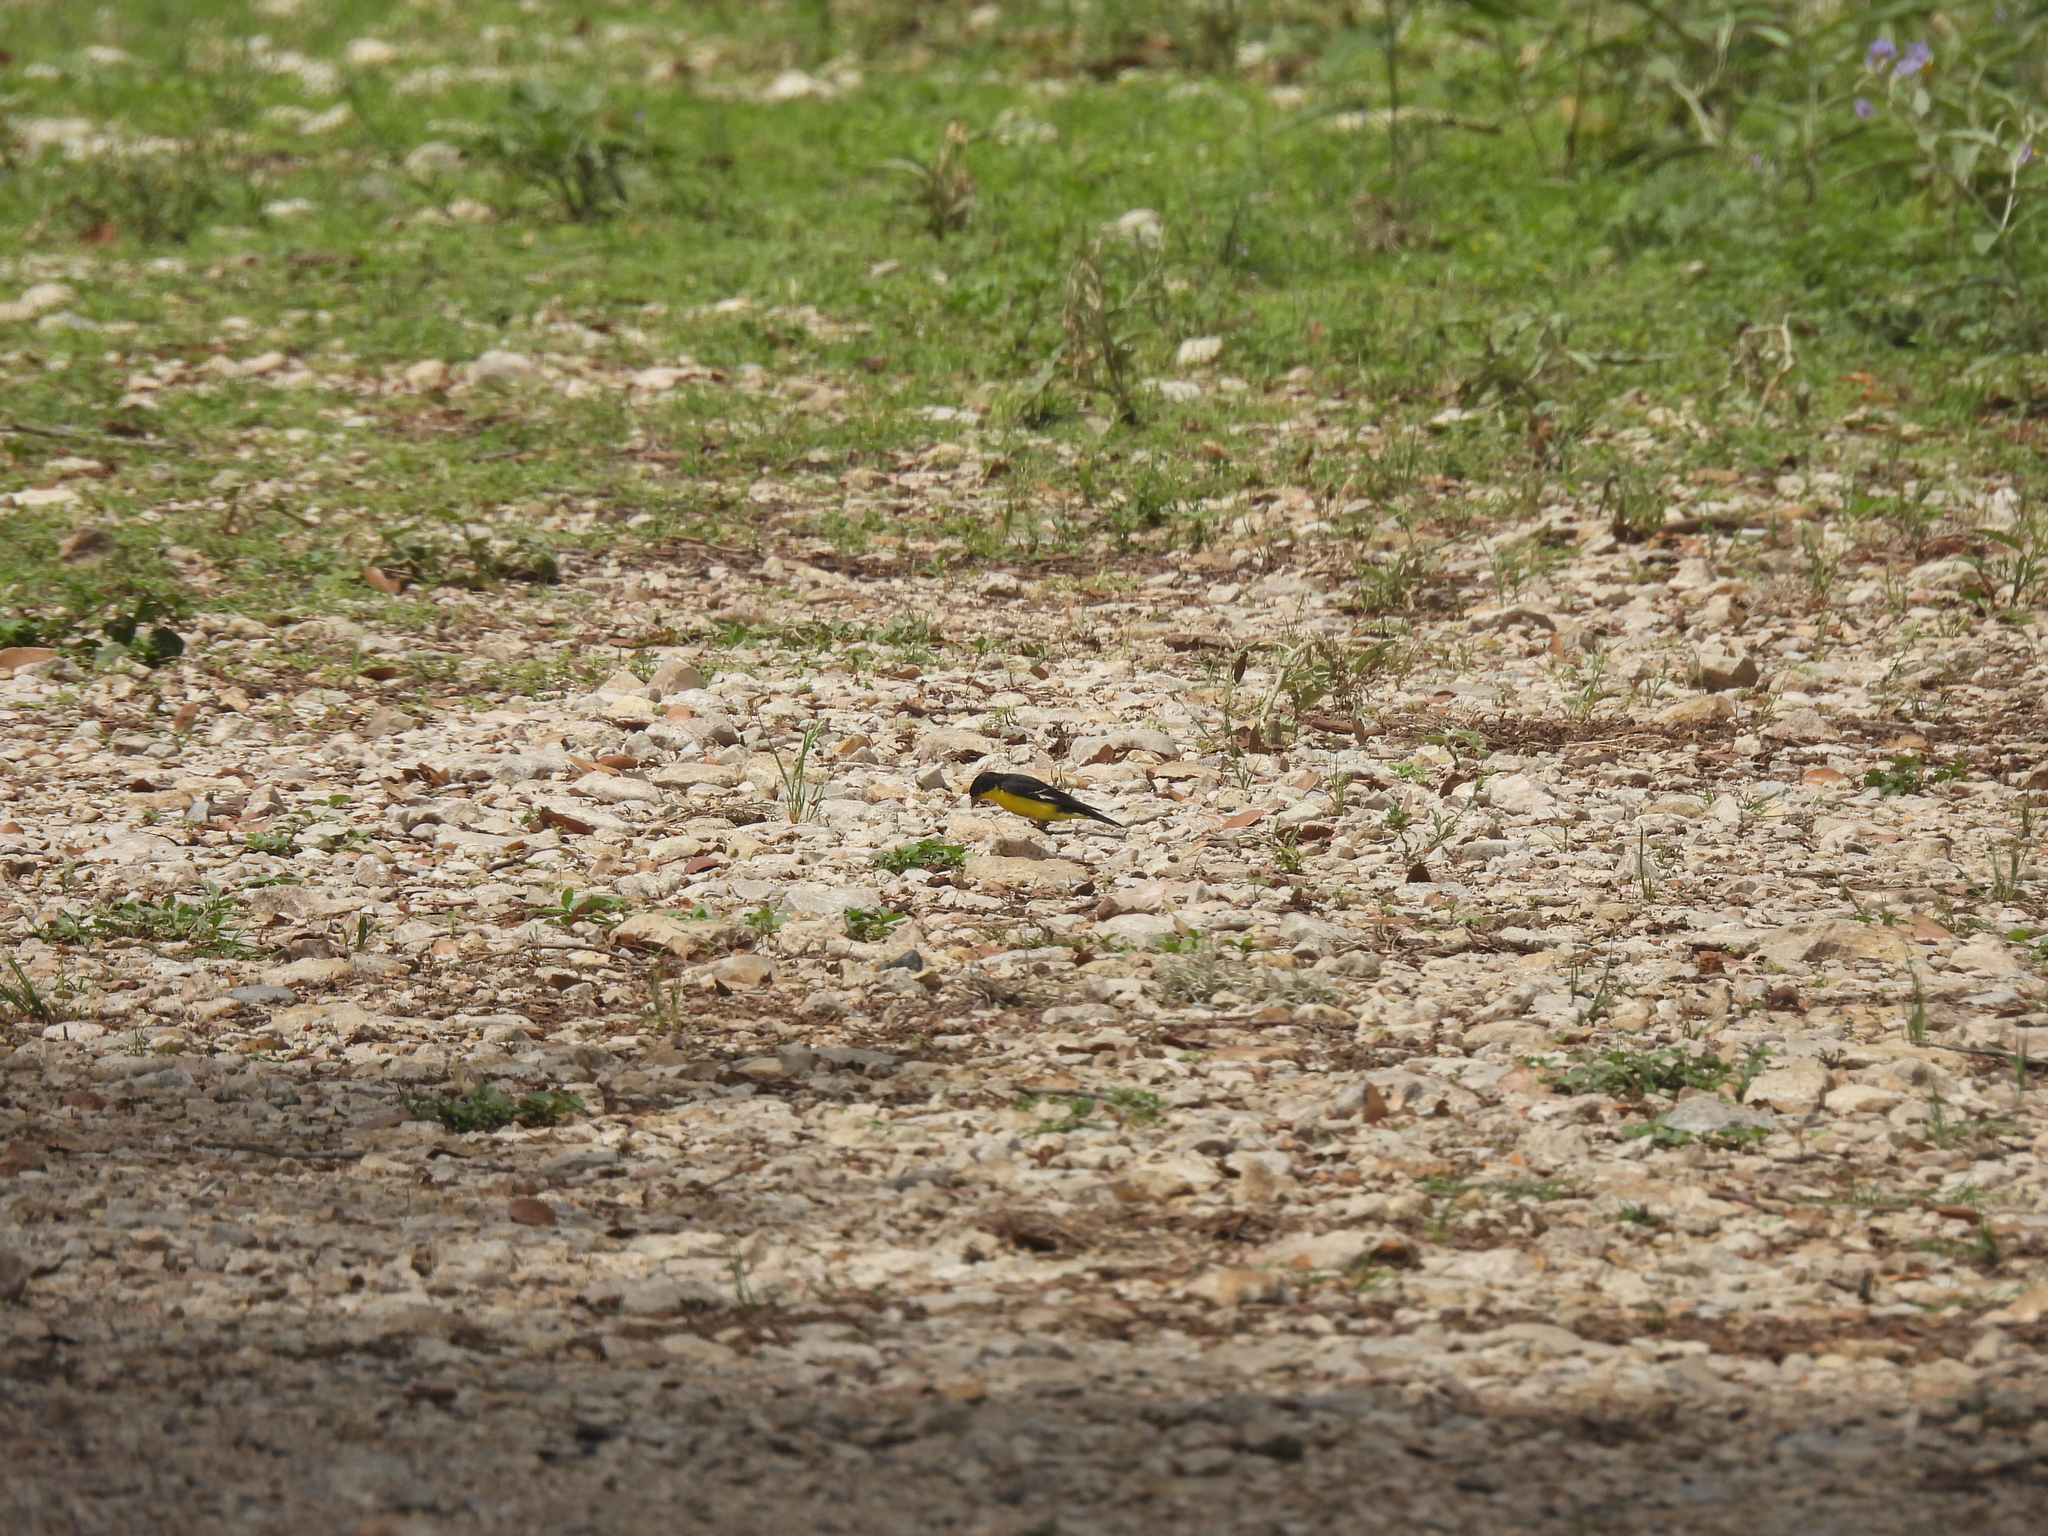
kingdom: Animalia
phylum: Chordata
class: Aves
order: Passeriformes
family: Fringillidae
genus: Spinus
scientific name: Spinus psaltria
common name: Lesser goldfinch
